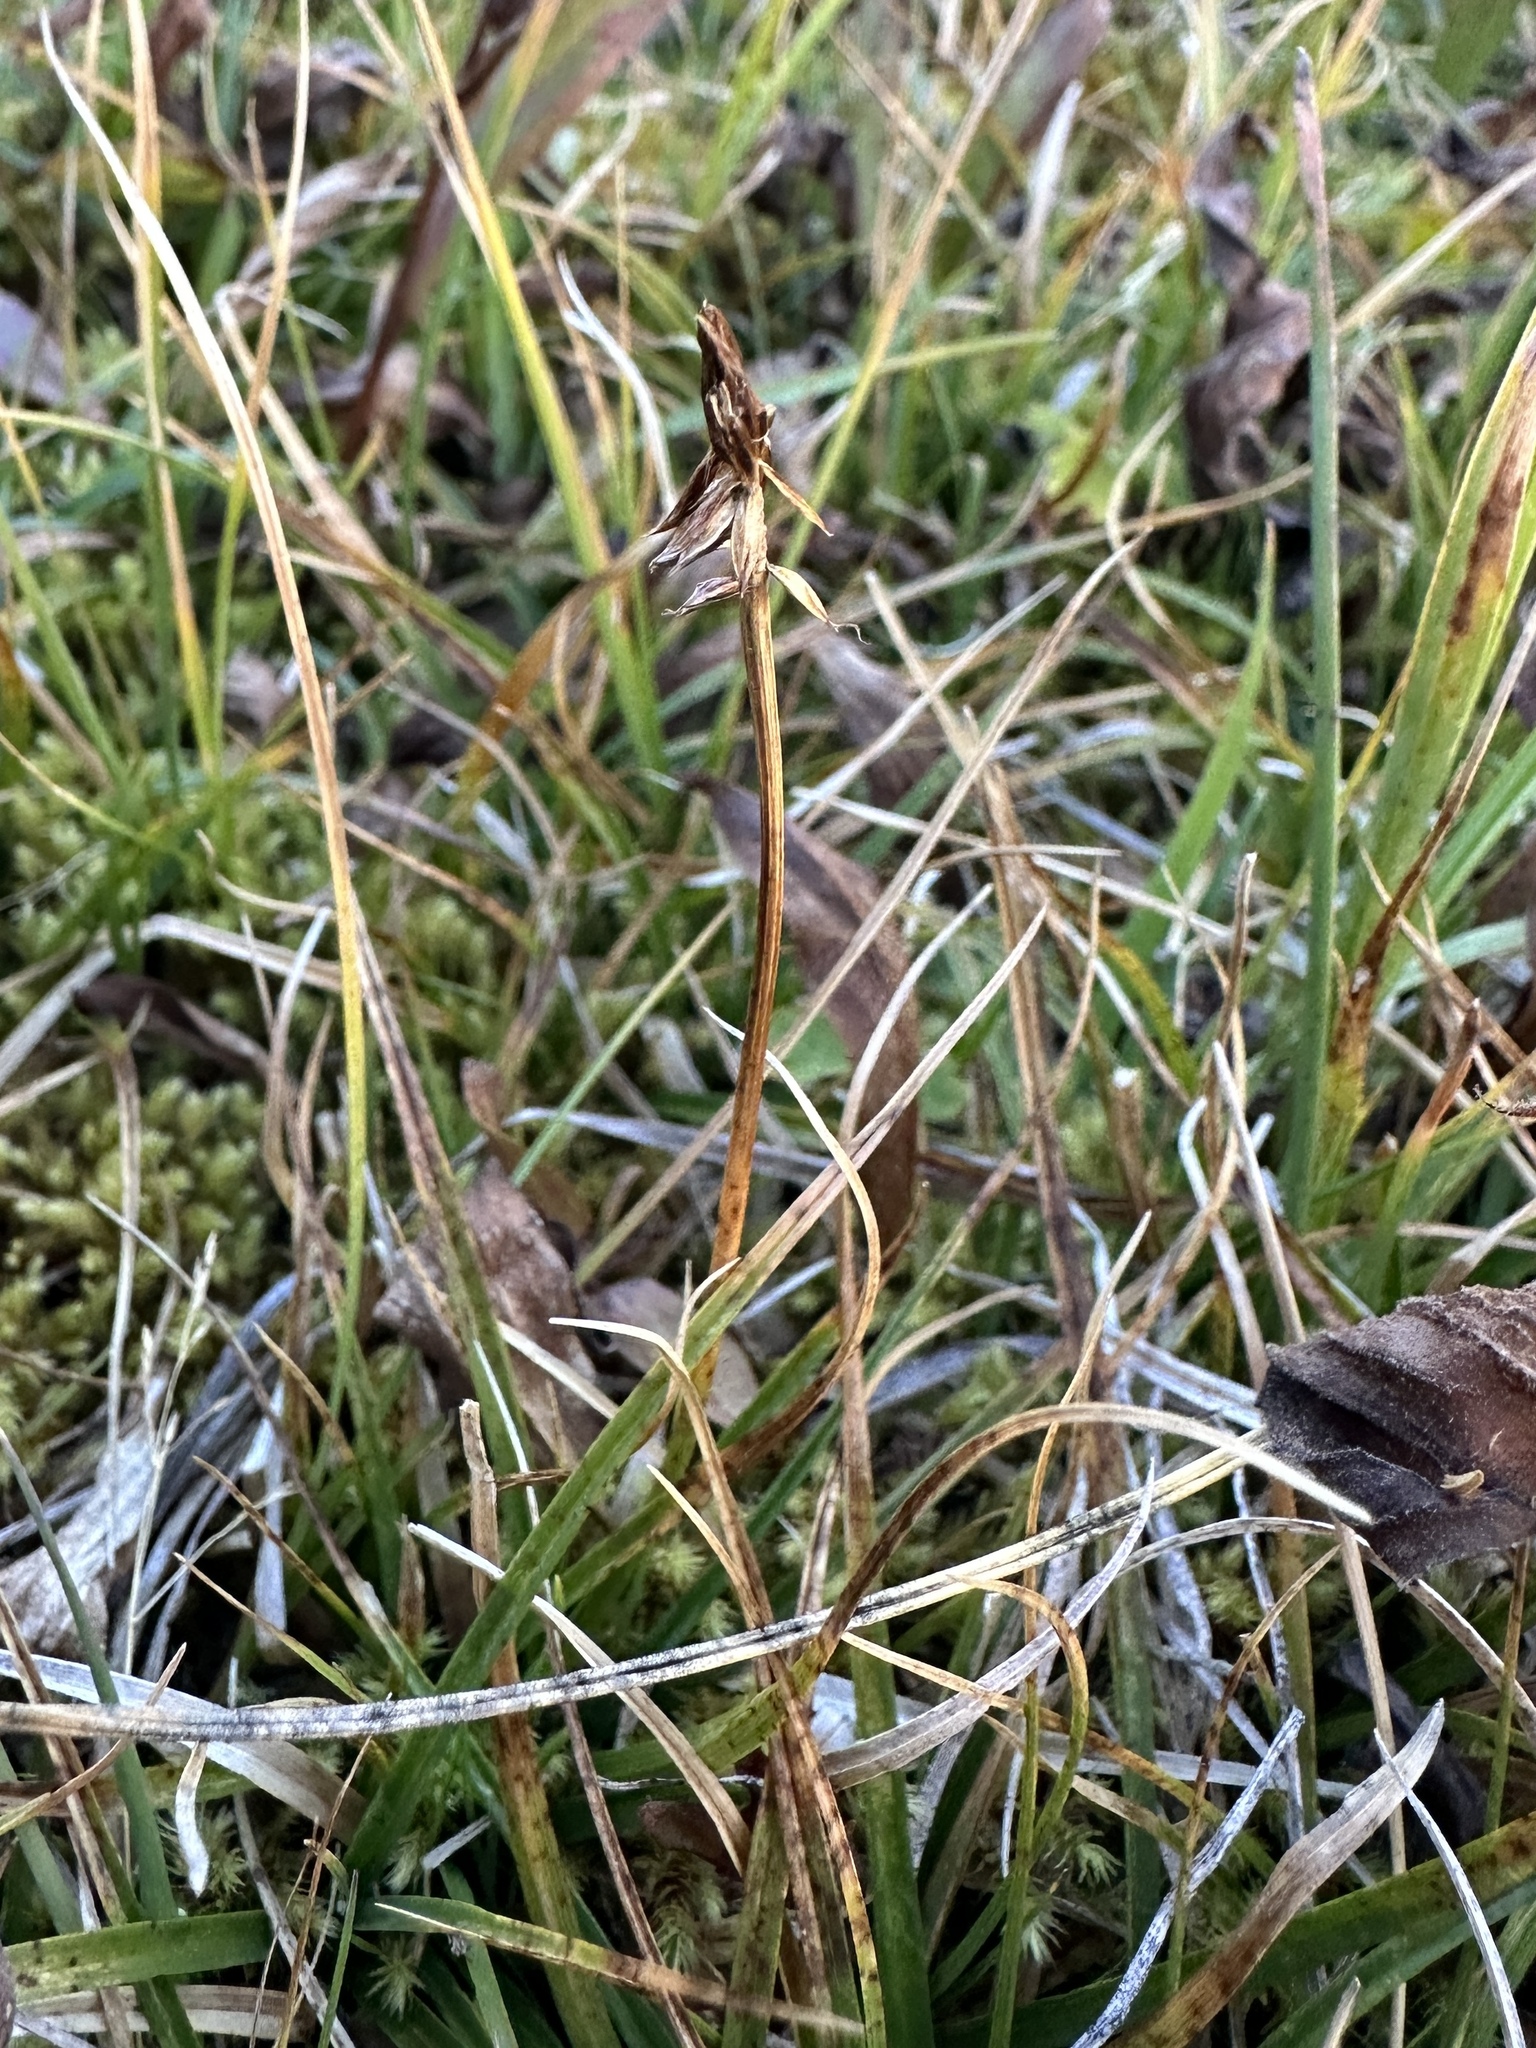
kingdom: Plantae
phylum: Tracheophyta
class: Liliopsida
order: Poales
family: Cyperaceae
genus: Carex
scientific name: Carex nigricans
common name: Black alpine sedge
